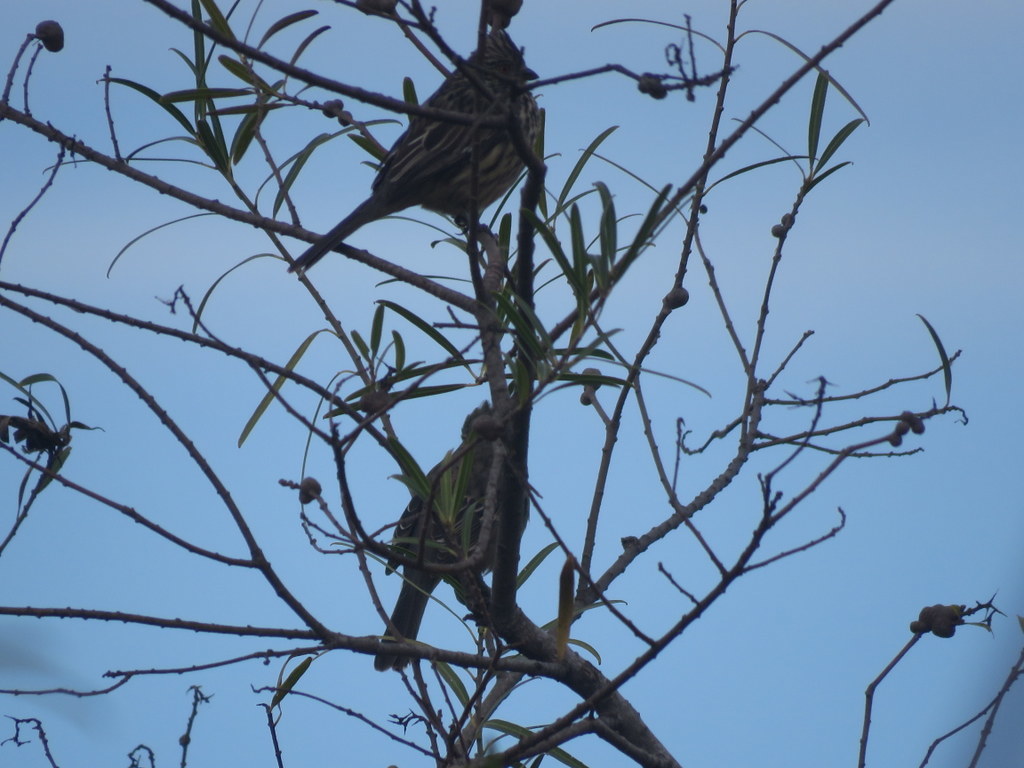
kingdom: Animalia
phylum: Chordata
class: Aves
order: Passeriformes
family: Cotingidae
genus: Phytotoma
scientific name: Phytotoma rutila
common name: White-tipped plantcutter
